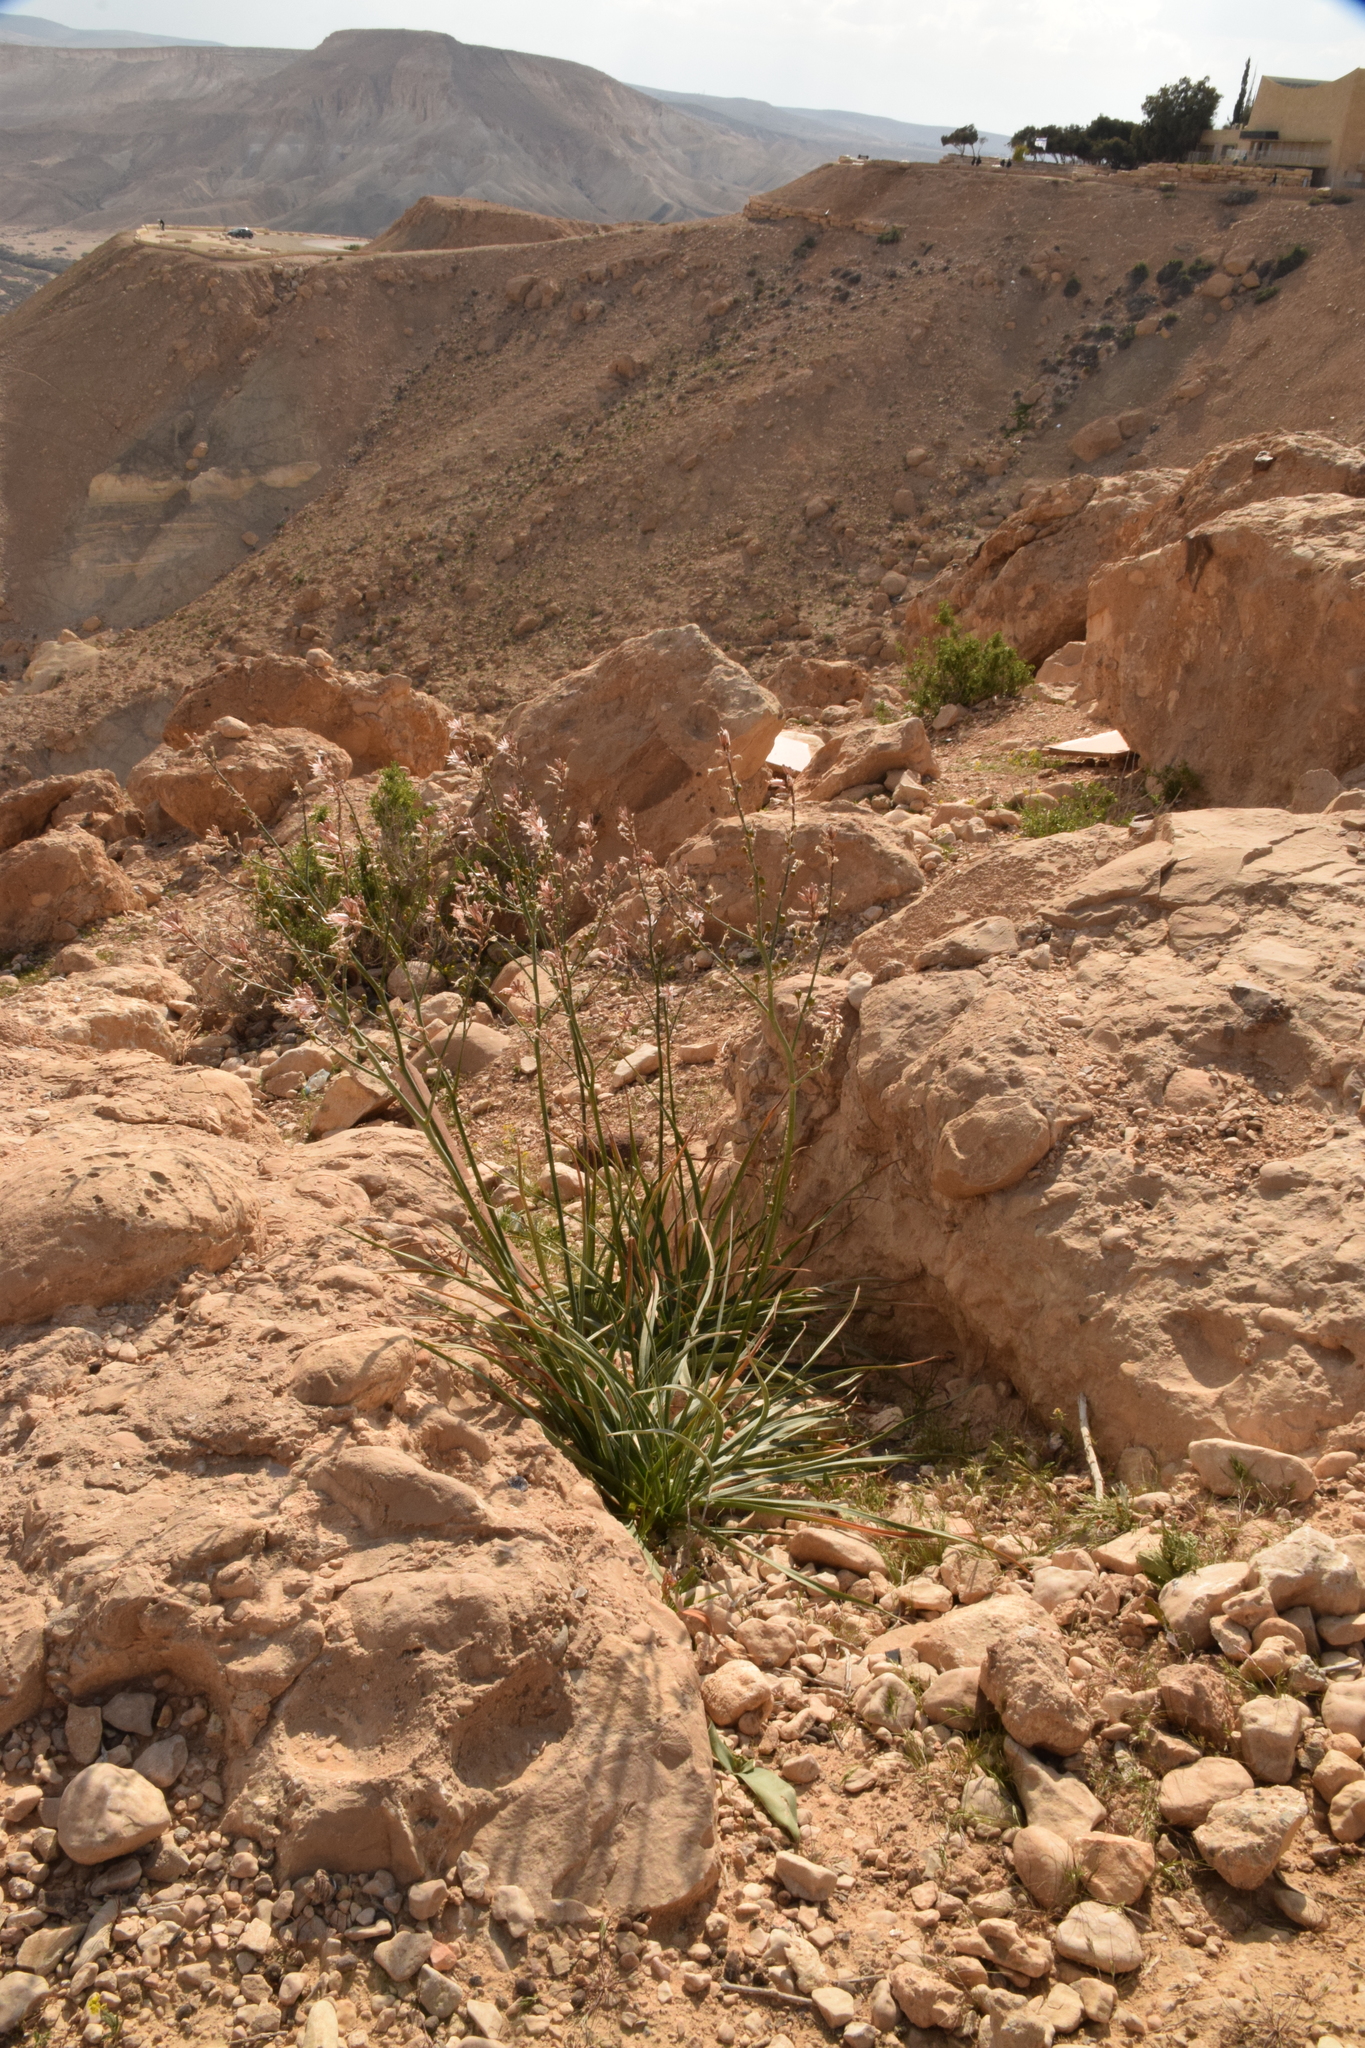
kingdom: Plantae
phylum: Tracheophyta
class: Liliopsida
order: Asparagales
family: Asphodelaceae
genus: Asphodelus
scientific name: Asphodelus ramosus
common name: Silverrod
